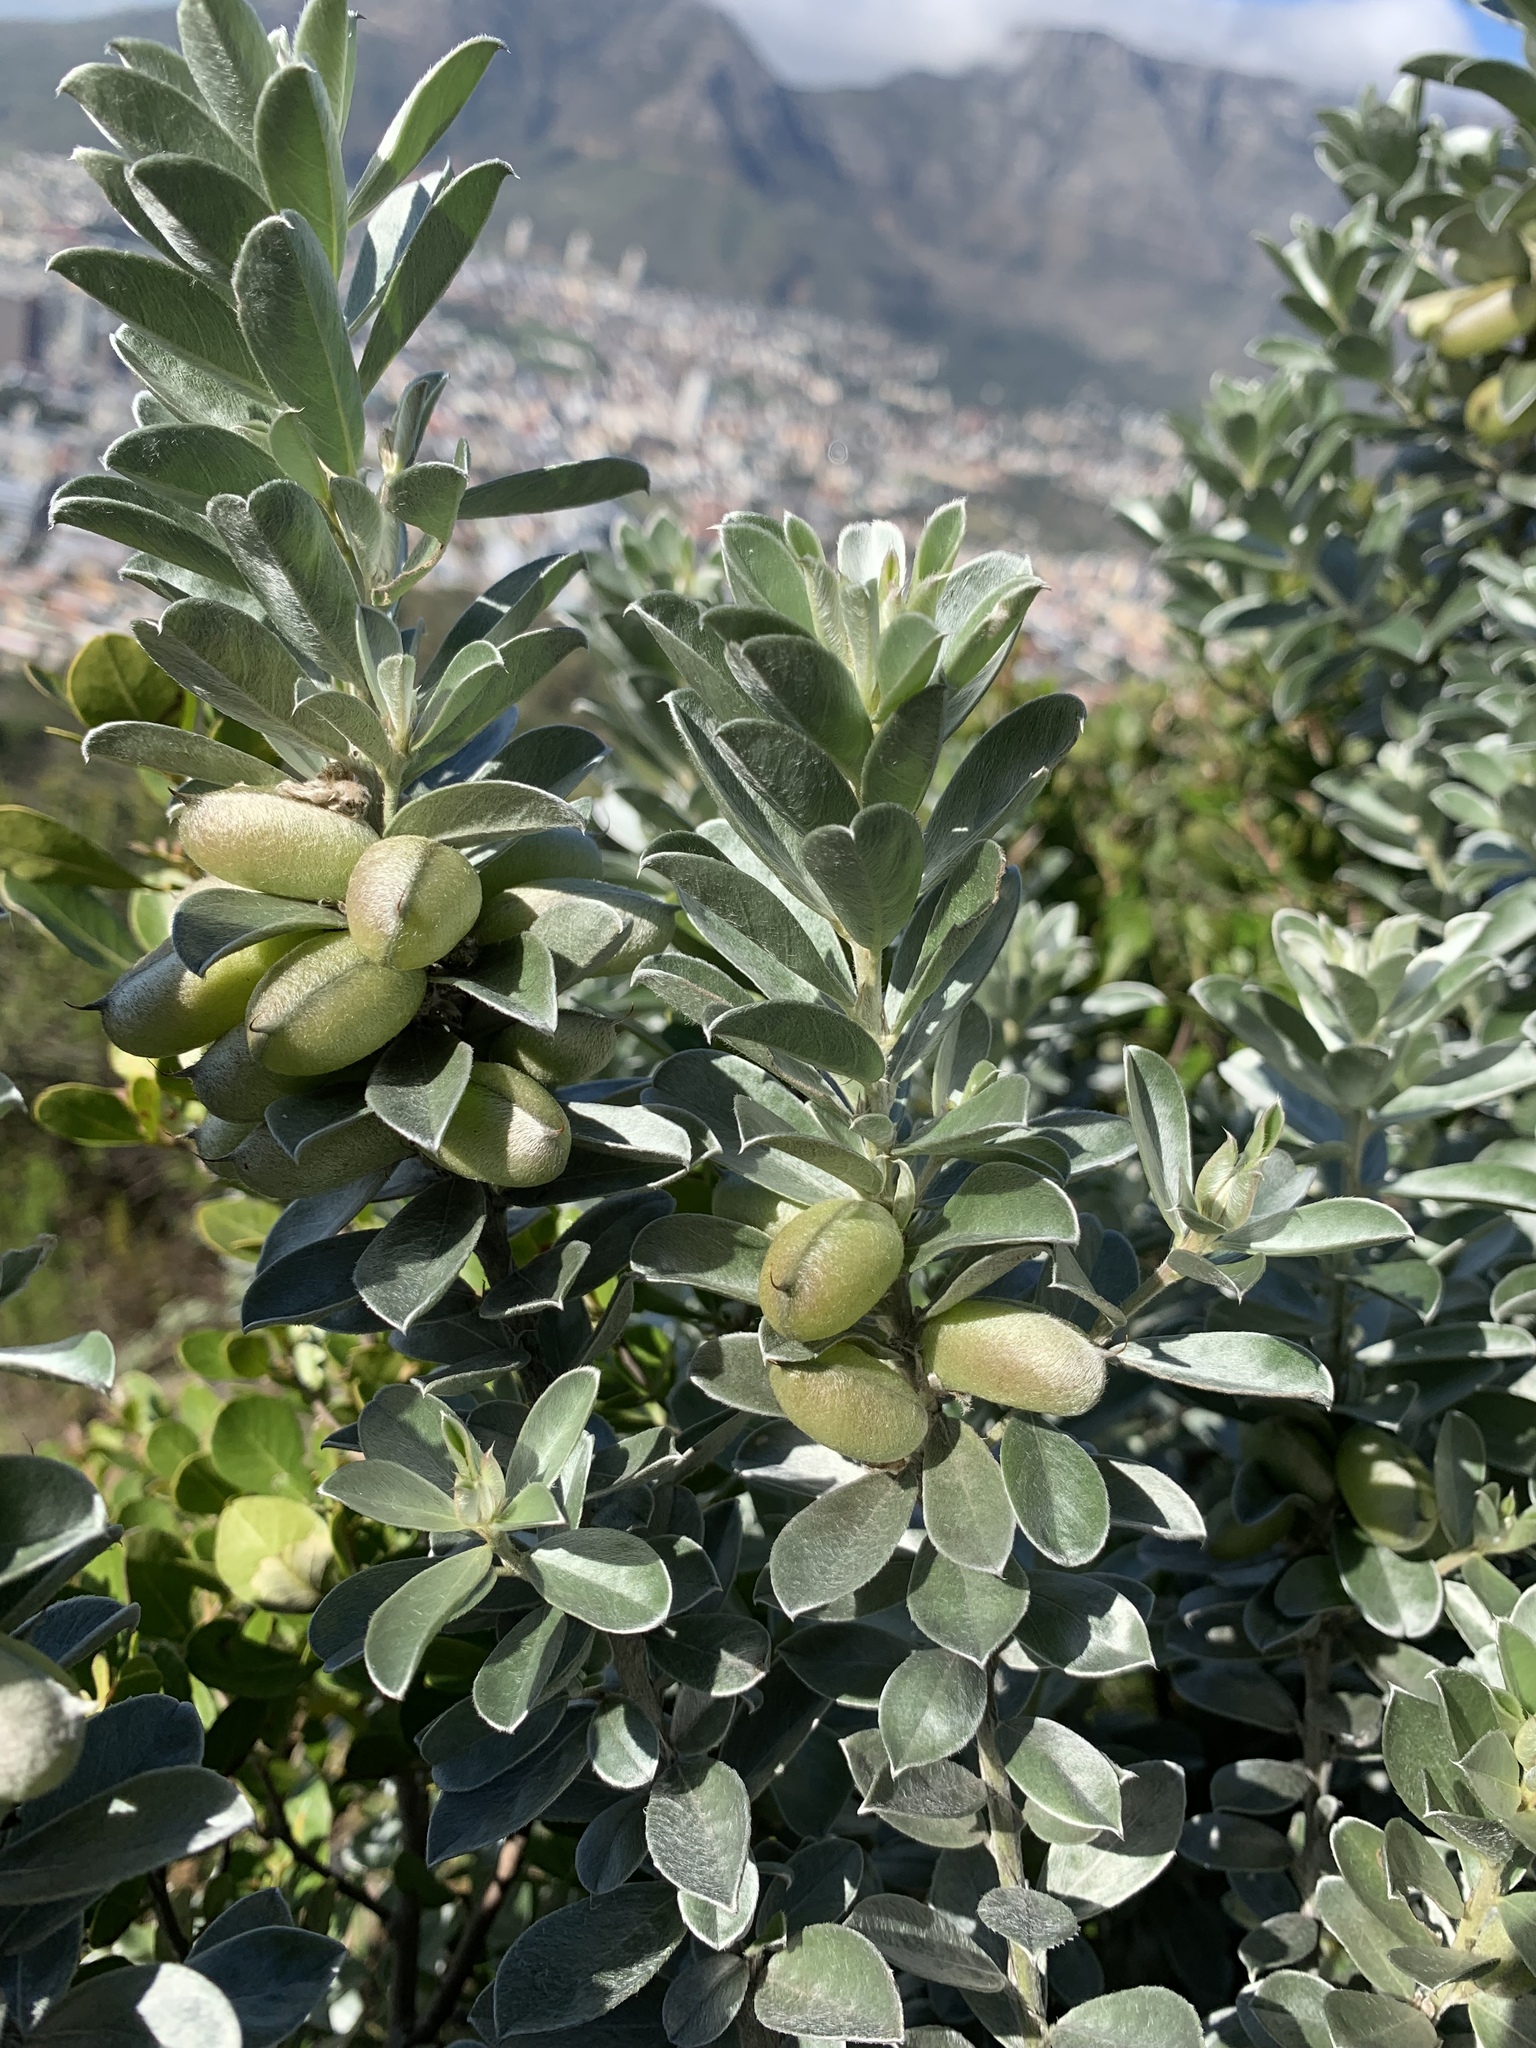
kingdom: Plantae
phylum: Tracheophyta
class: Magnoliopsida
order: Fabales
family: Fabaceae
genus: Podalyria
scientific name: Podalyria sericea
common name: Silver podalyria
